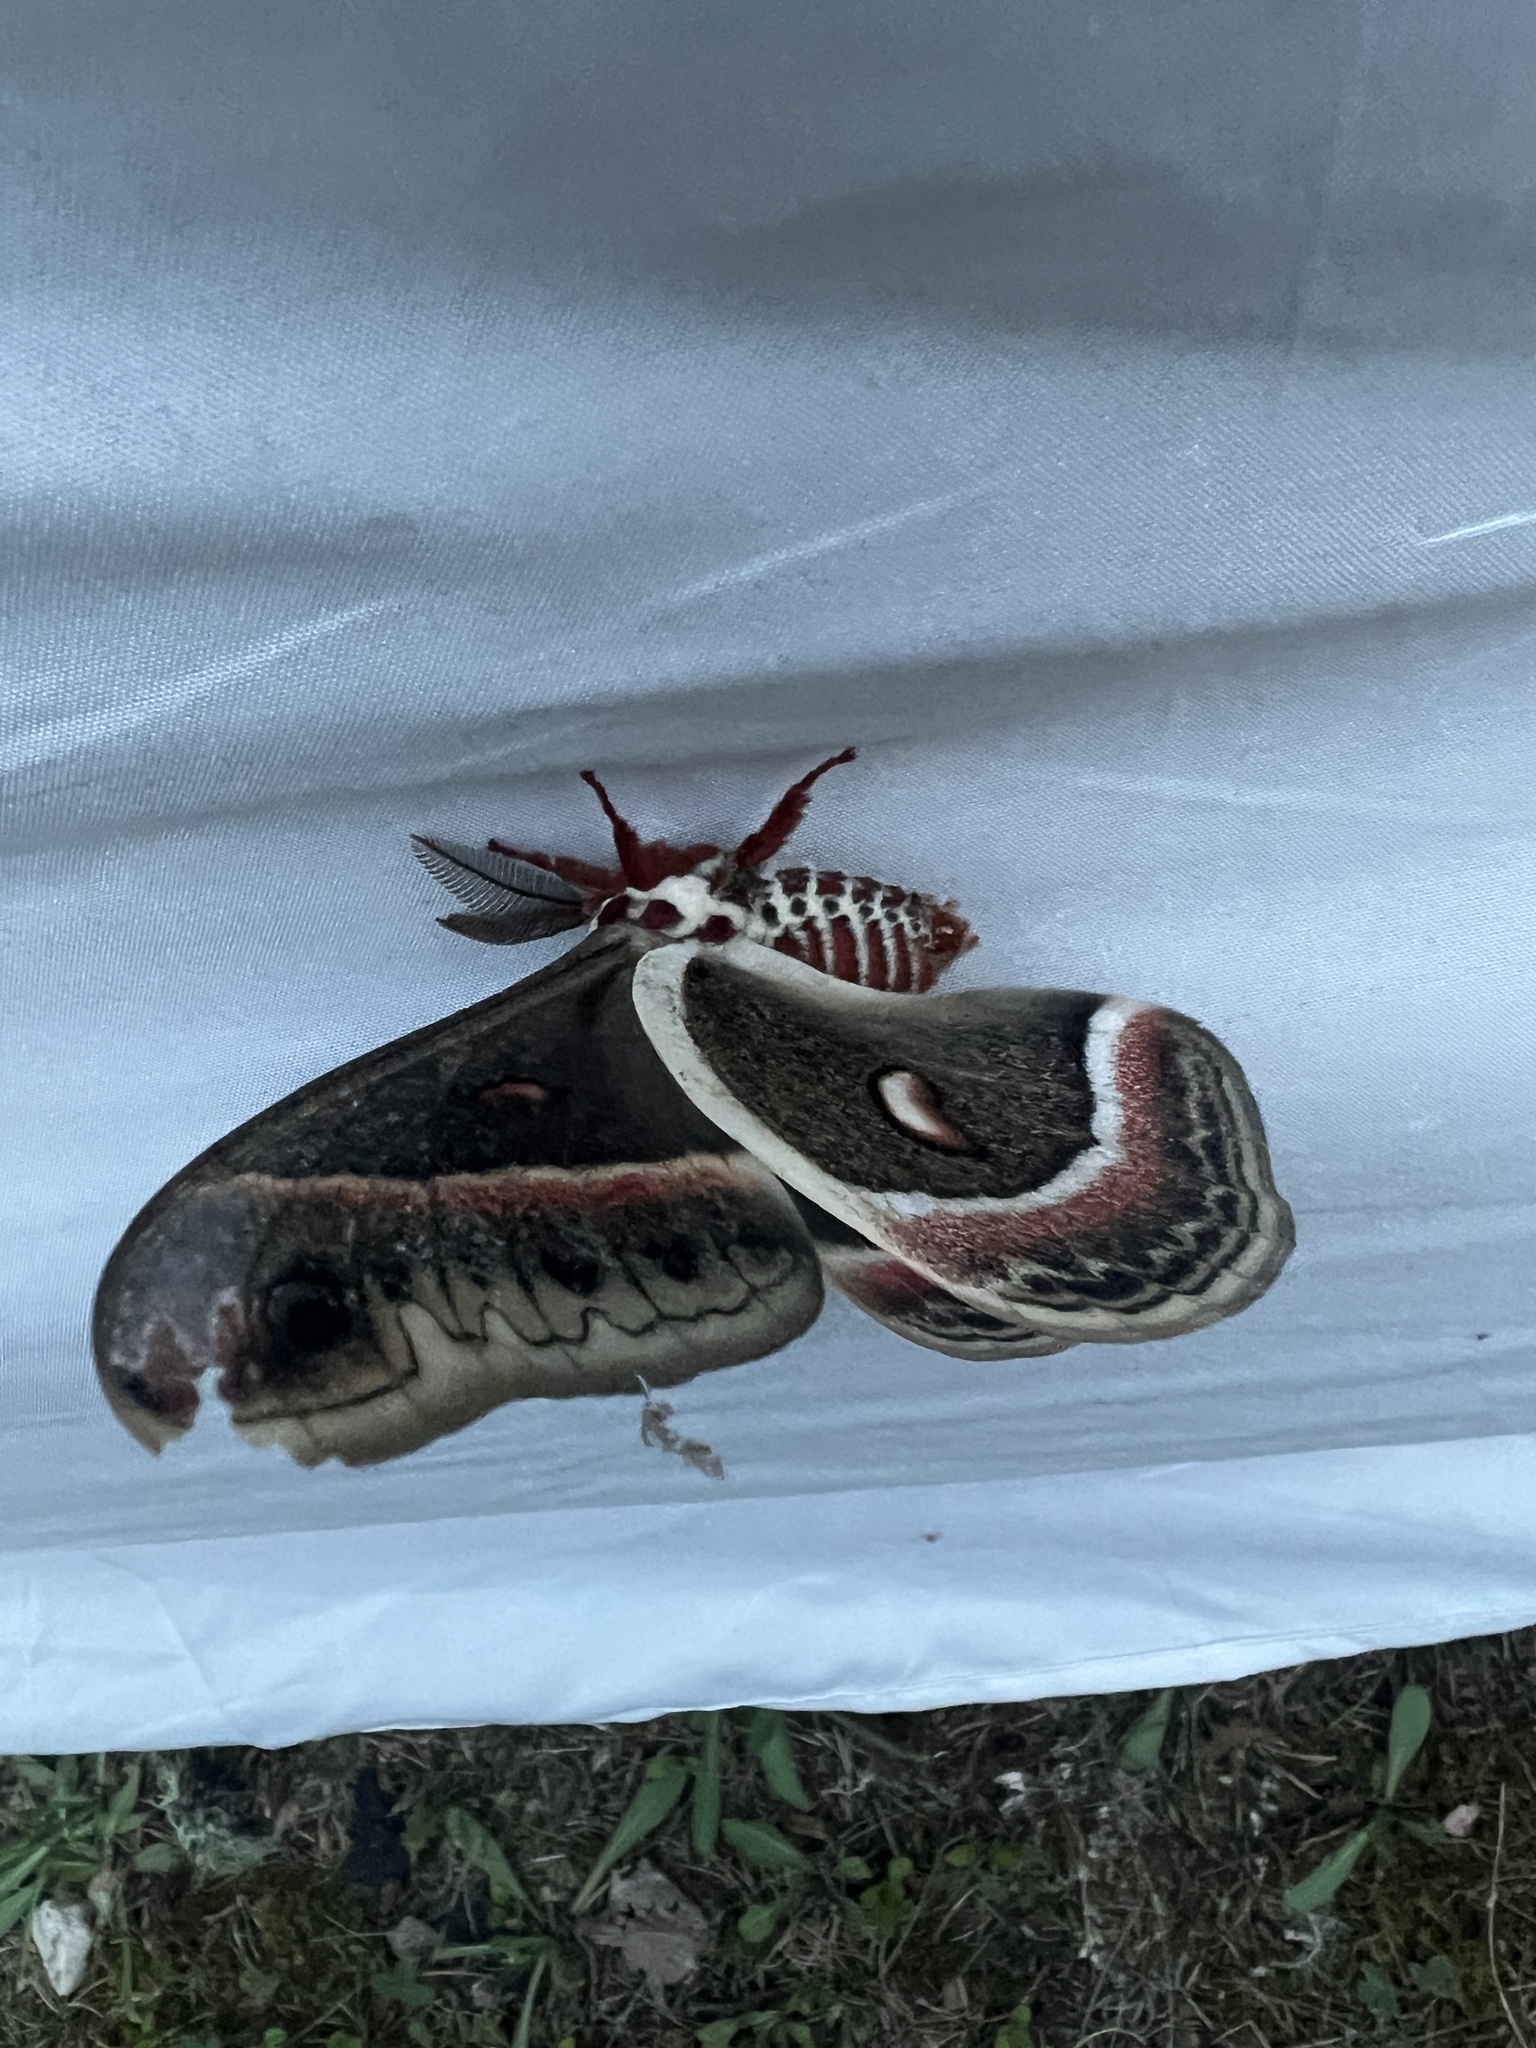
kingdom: Animalia
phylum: Arthropoda
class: Insecta
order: Lepidoptera
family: Saturniidae
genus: Hyalophora
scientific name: Hyalophora cecropia
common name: Cecropia silkmoth
